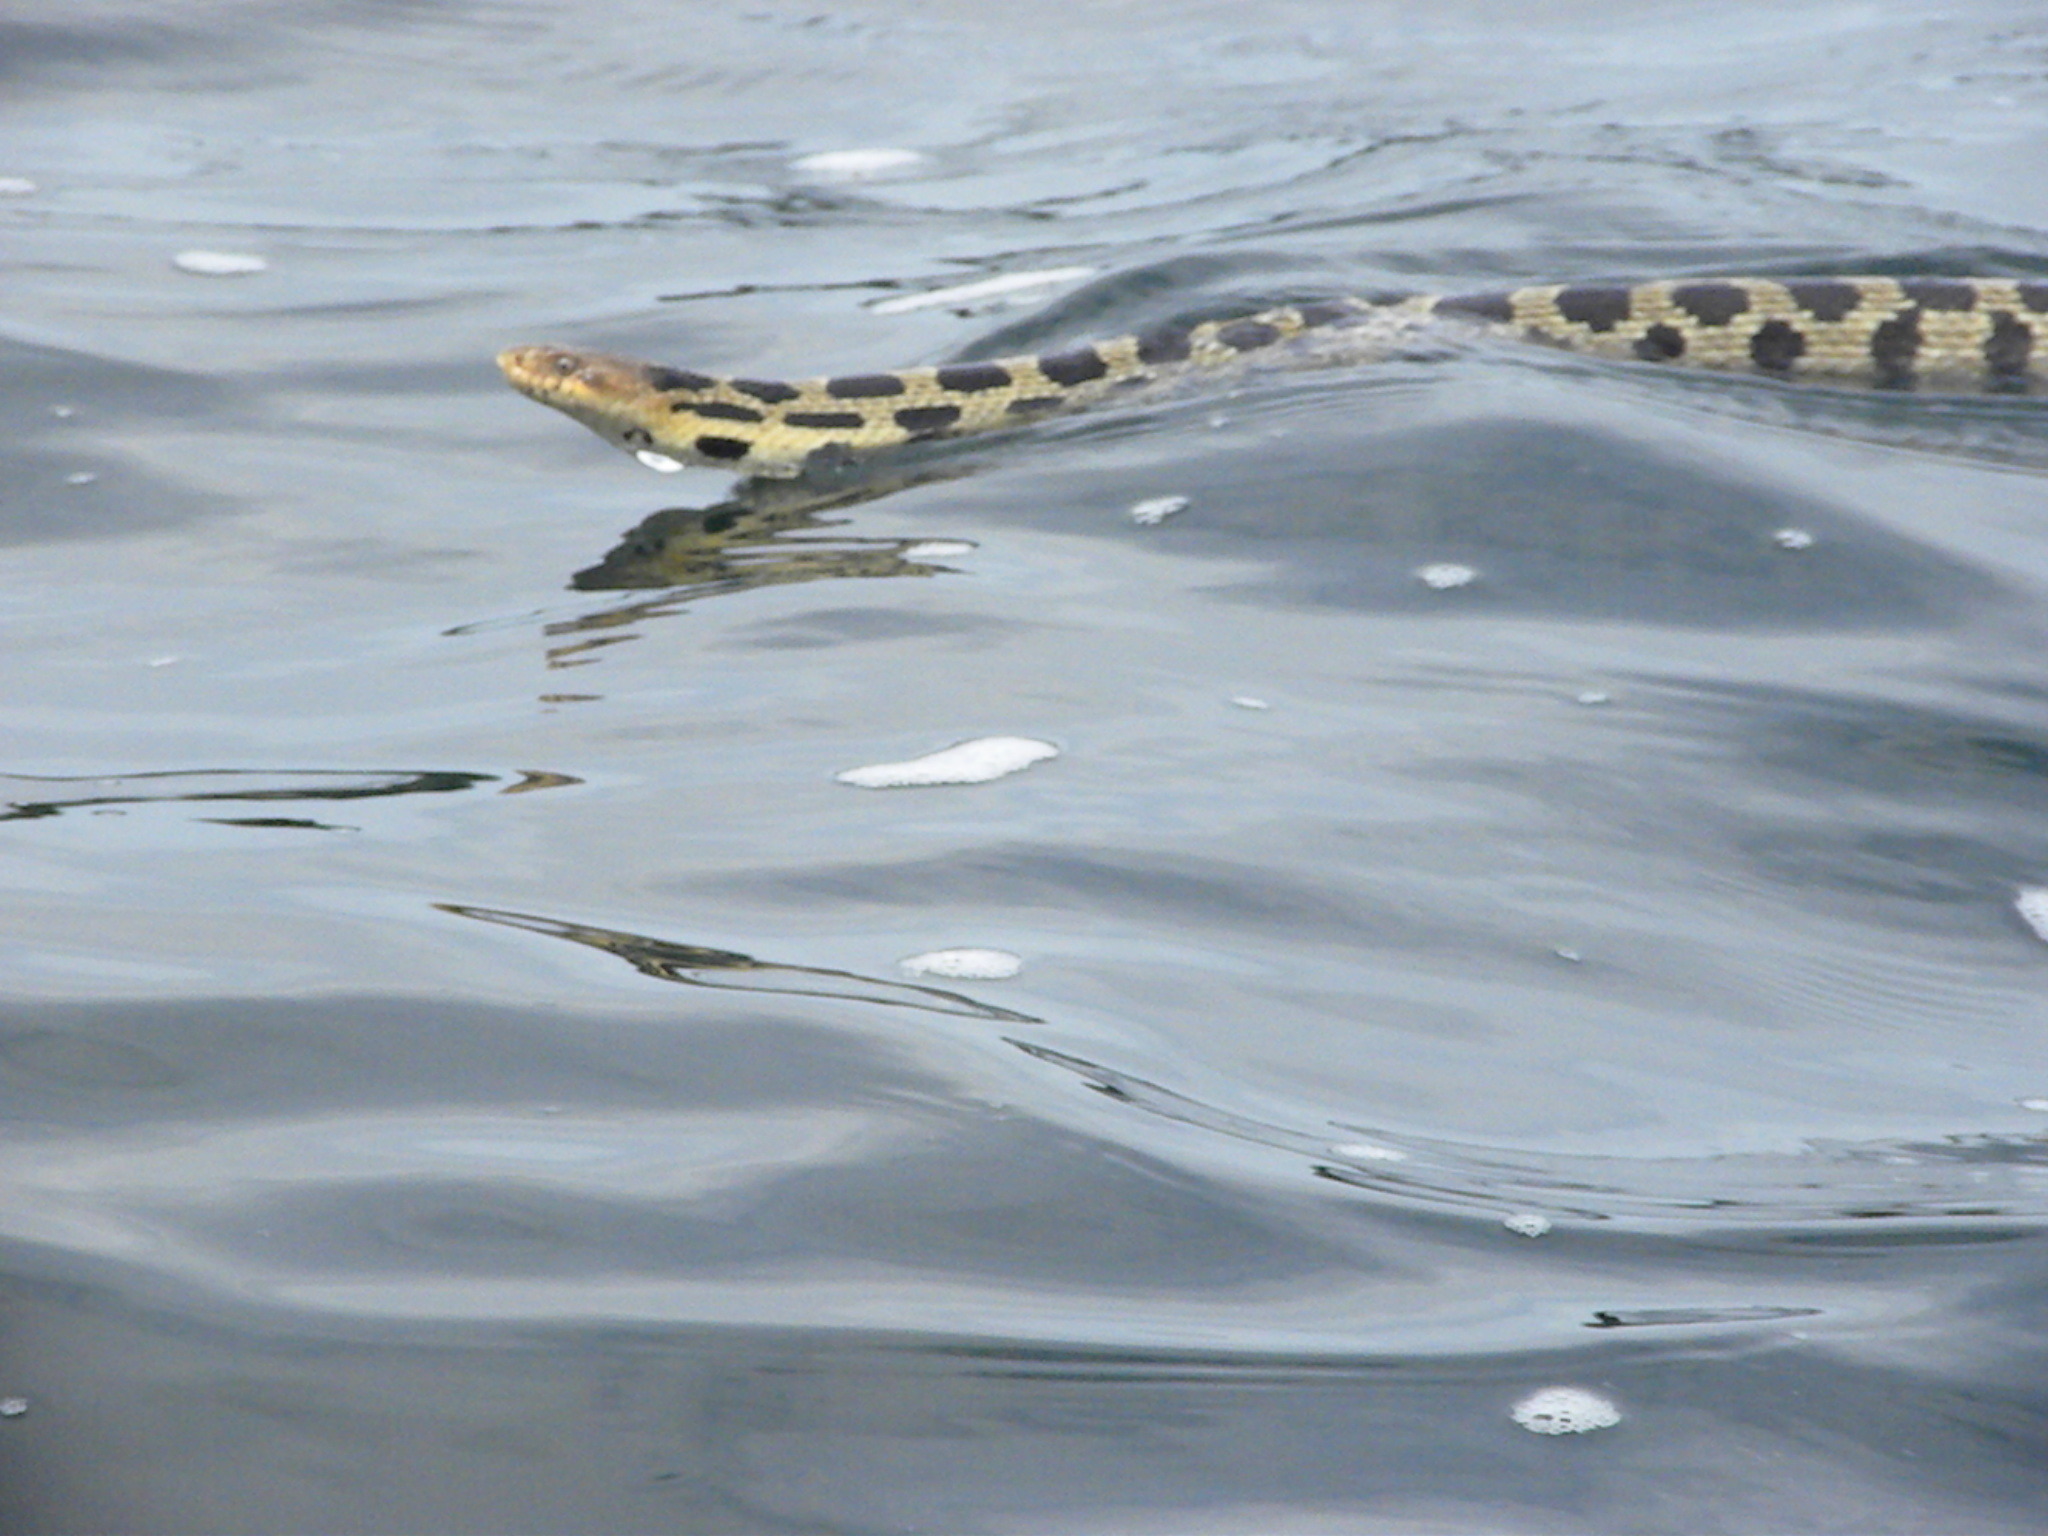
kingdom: Animalia
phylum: Chordata
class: Squamata
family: Colubridae
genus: Pantherophis
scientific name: Pantherophis vulpinus
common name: Eastern fox snake
